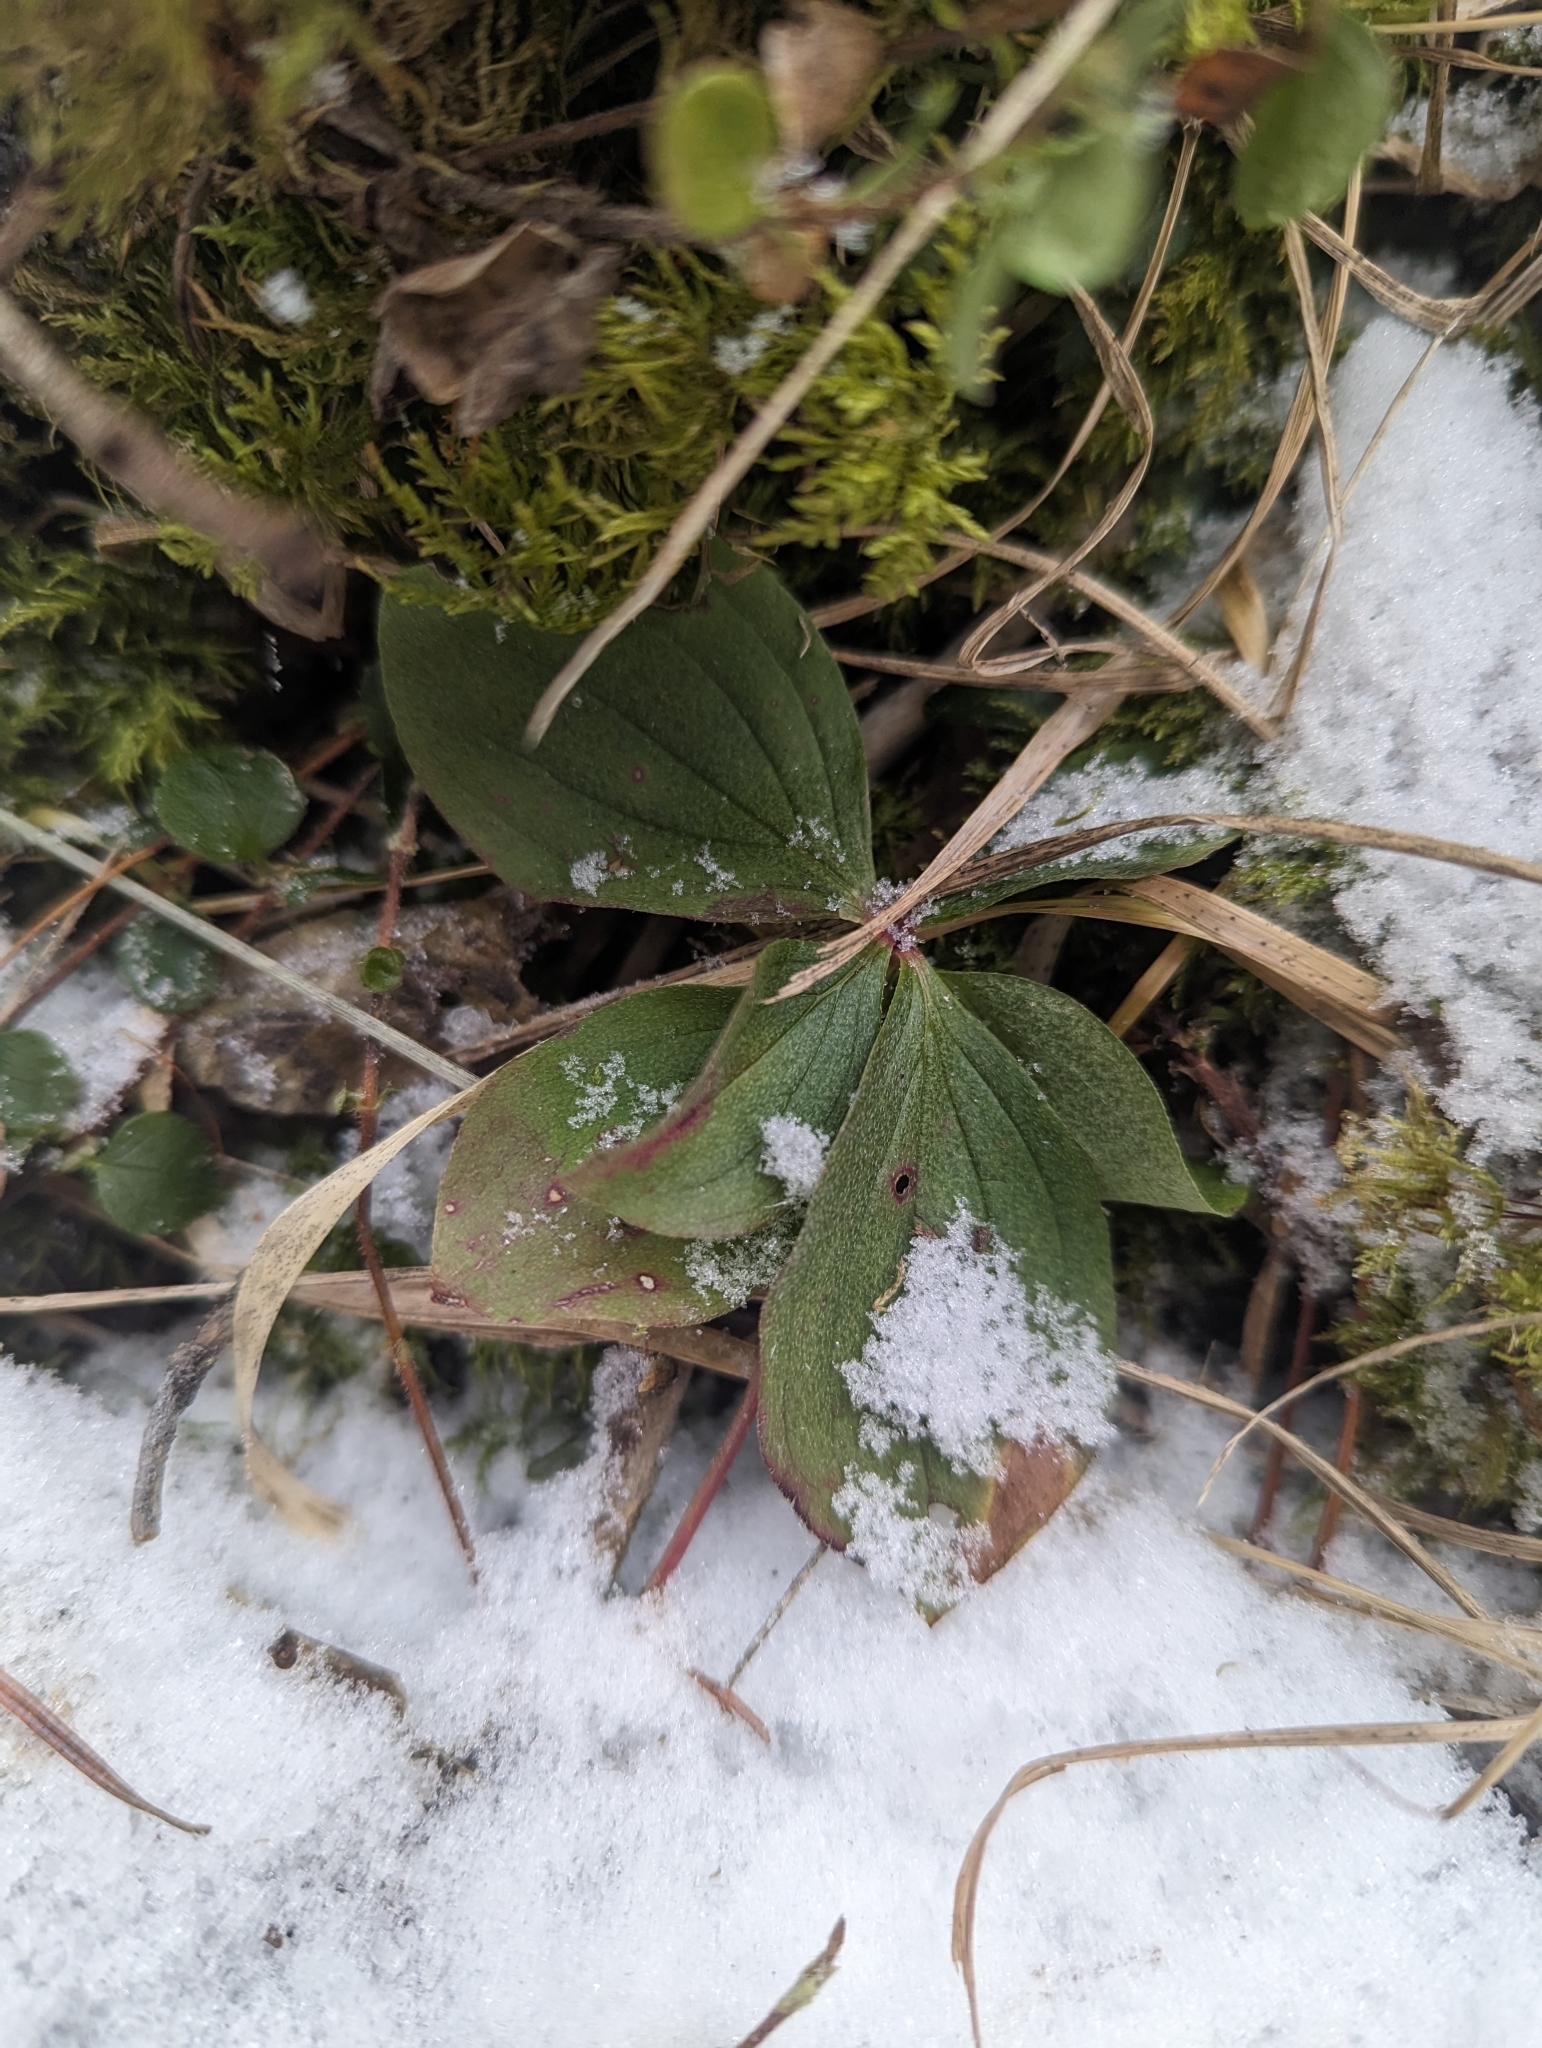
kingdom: Plantae
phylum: Tracheophyta
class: Magnoliopsida
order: Cornales
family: Cornaceae
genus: Cornus
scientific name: Cornus canadensis
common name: Creeping dogwood
